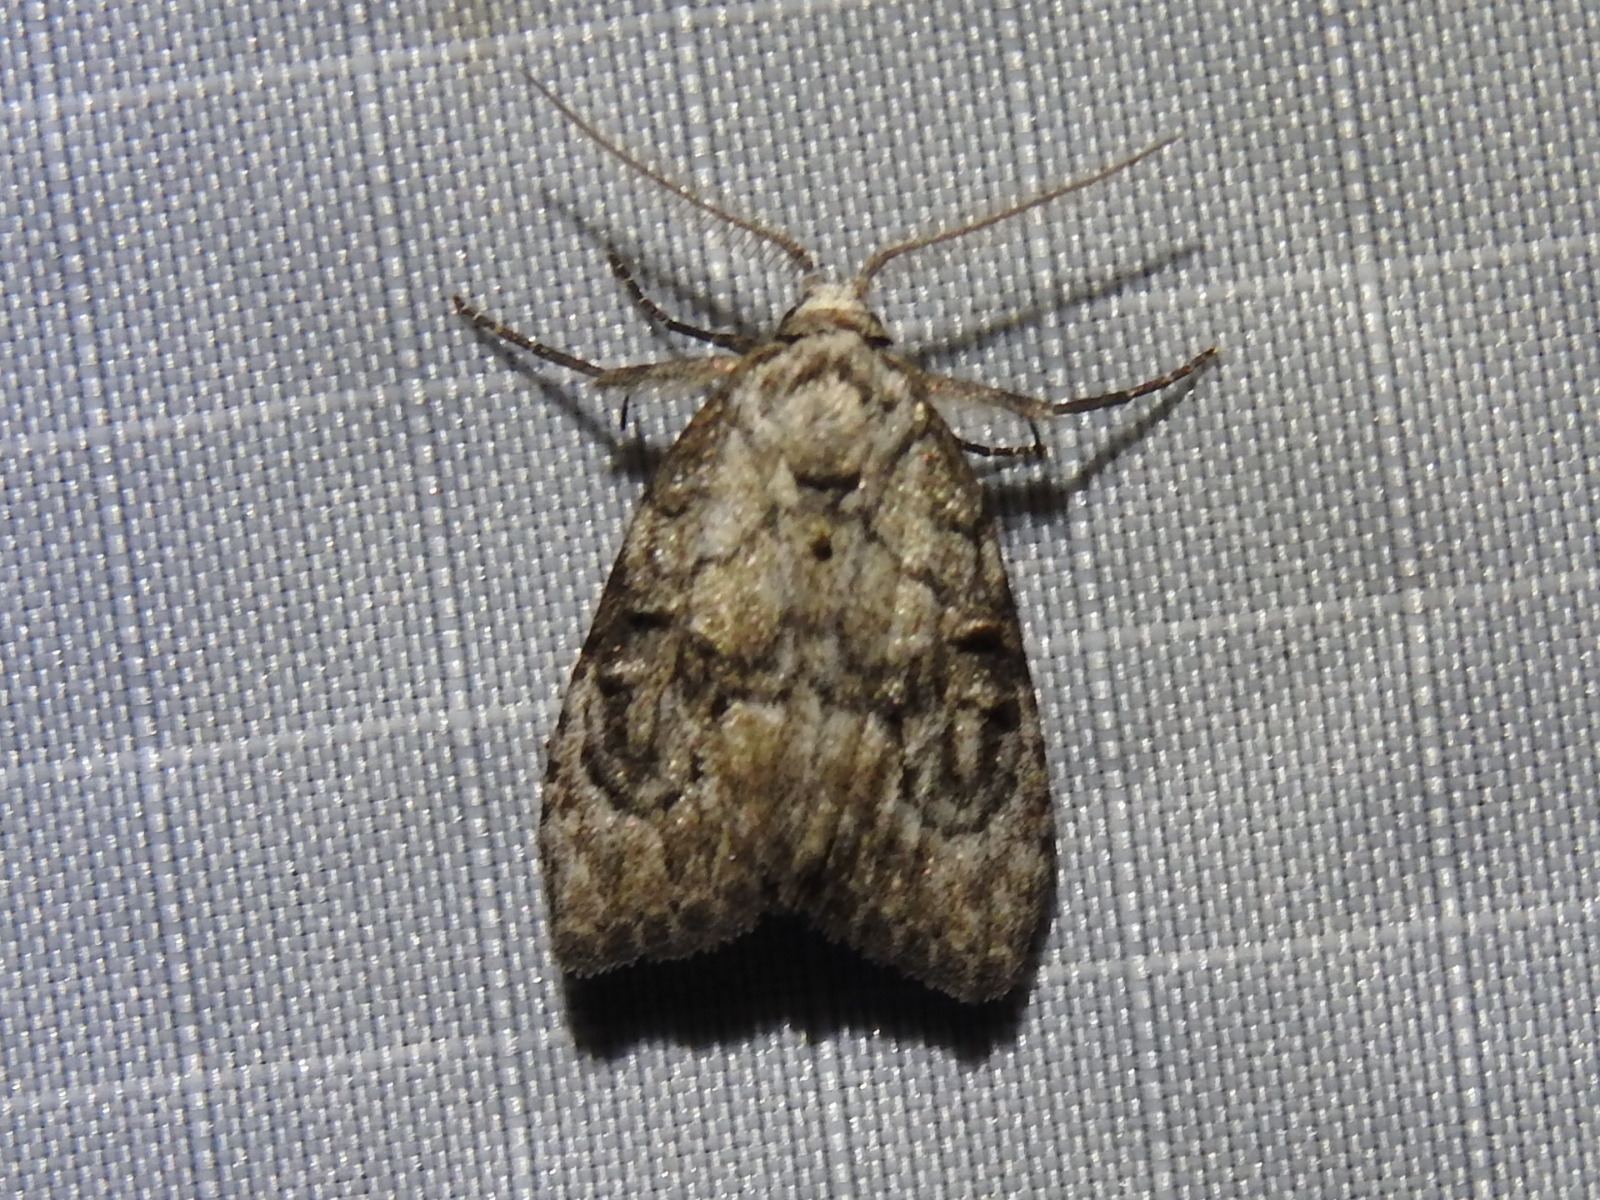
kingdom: Animalia
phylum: Arthropoda
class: Insecta
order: Lepidoptera
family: Nolidae
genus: Meganola
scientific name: Meganola minuscula
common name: Confused meganola moth
